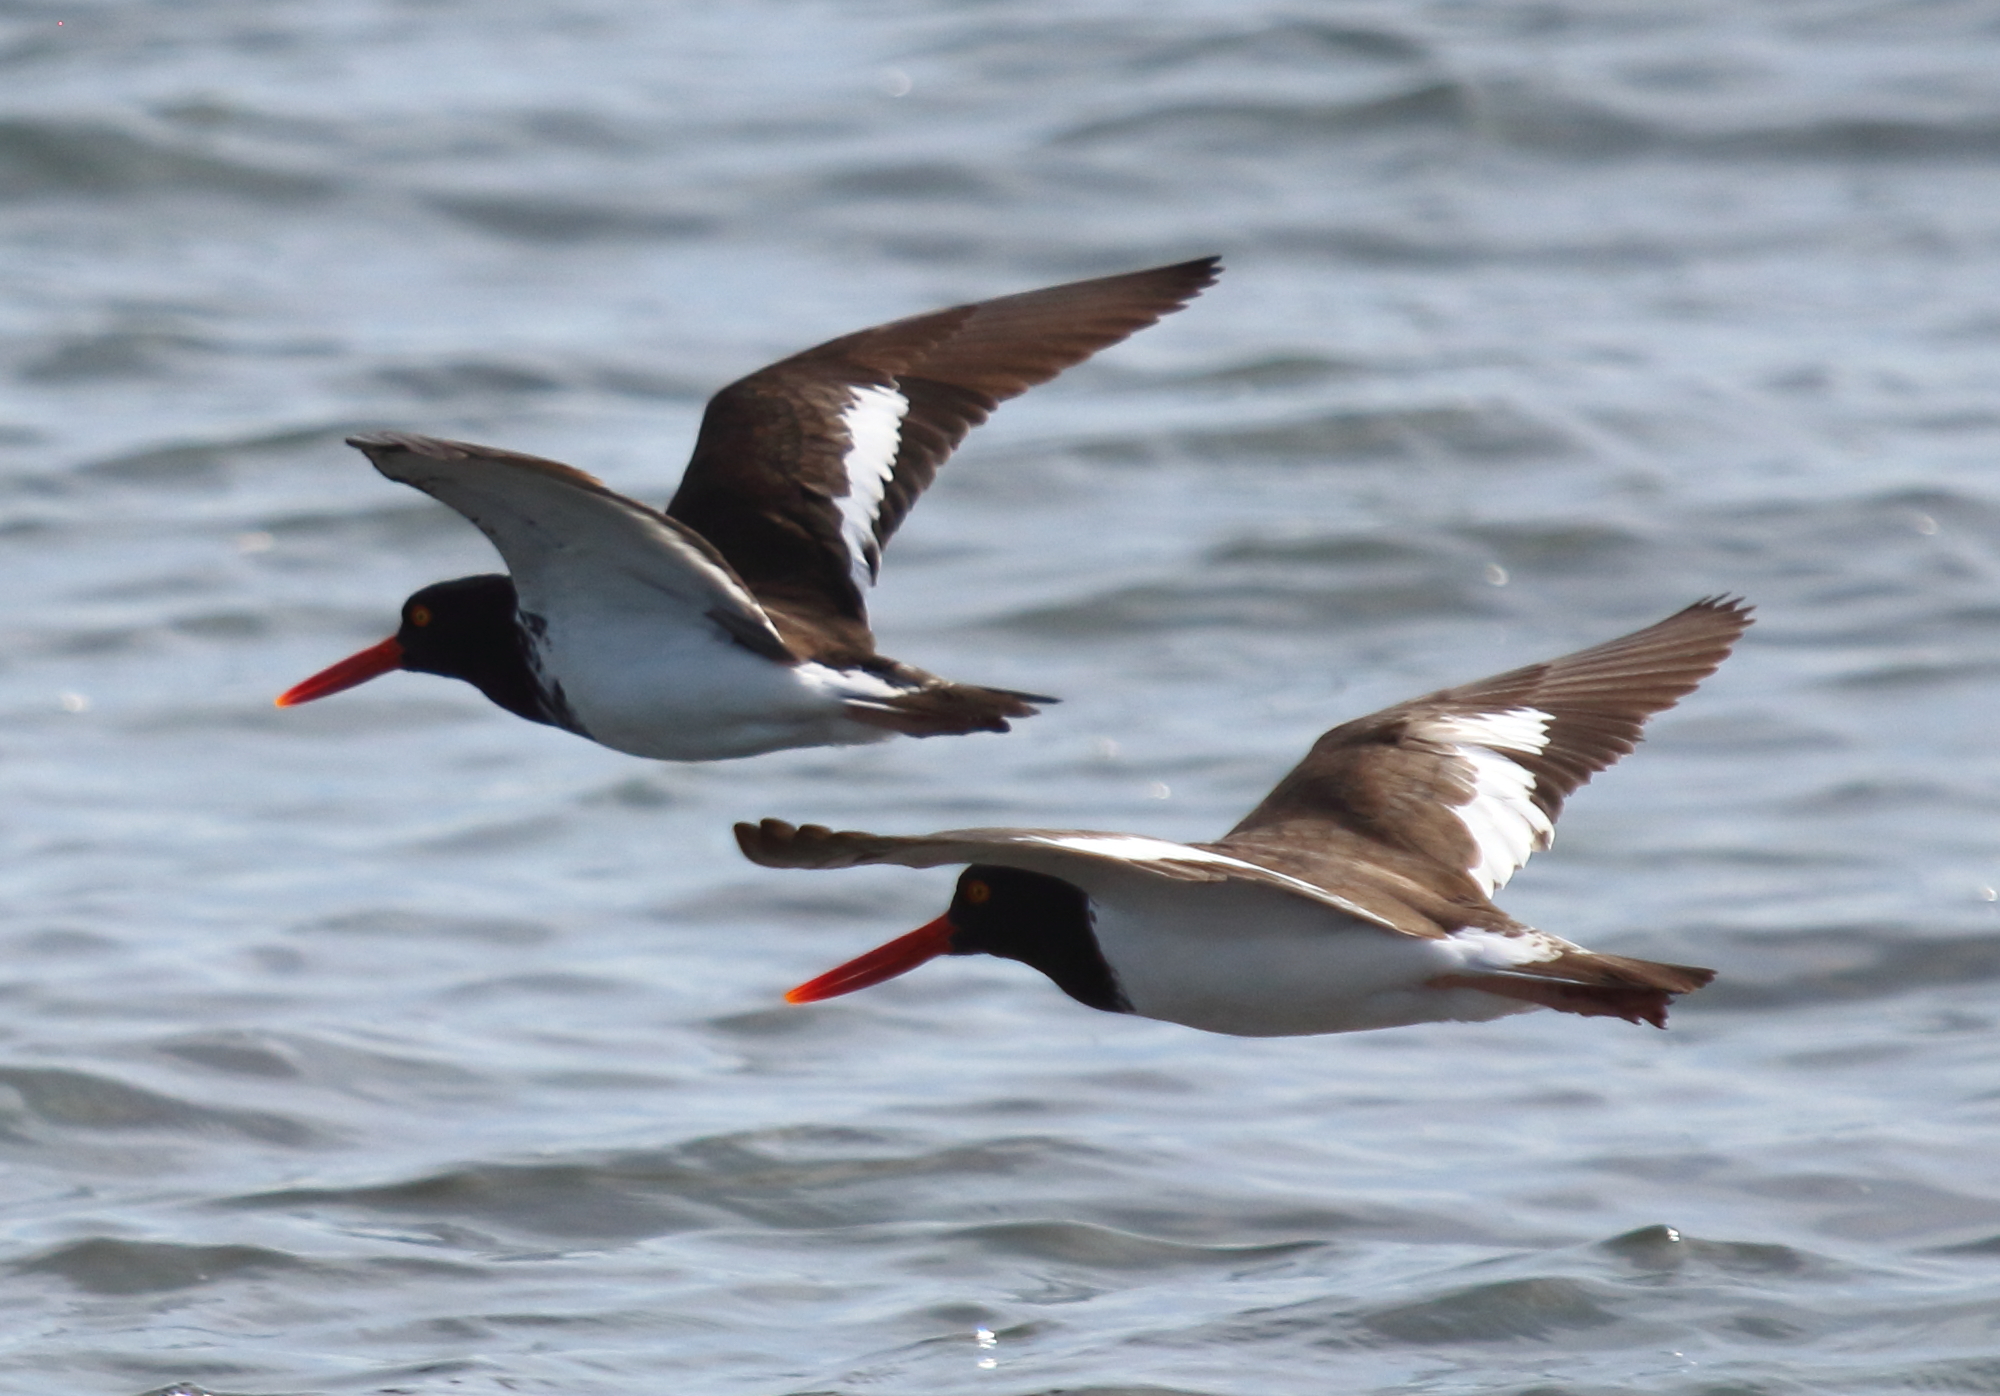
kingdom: Animalia
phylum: Chordata
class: Aves
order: Charadriiformes
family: Haematopodidae
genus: Haematopus
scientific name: Haematopus palliatus
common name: American oystercatcher
